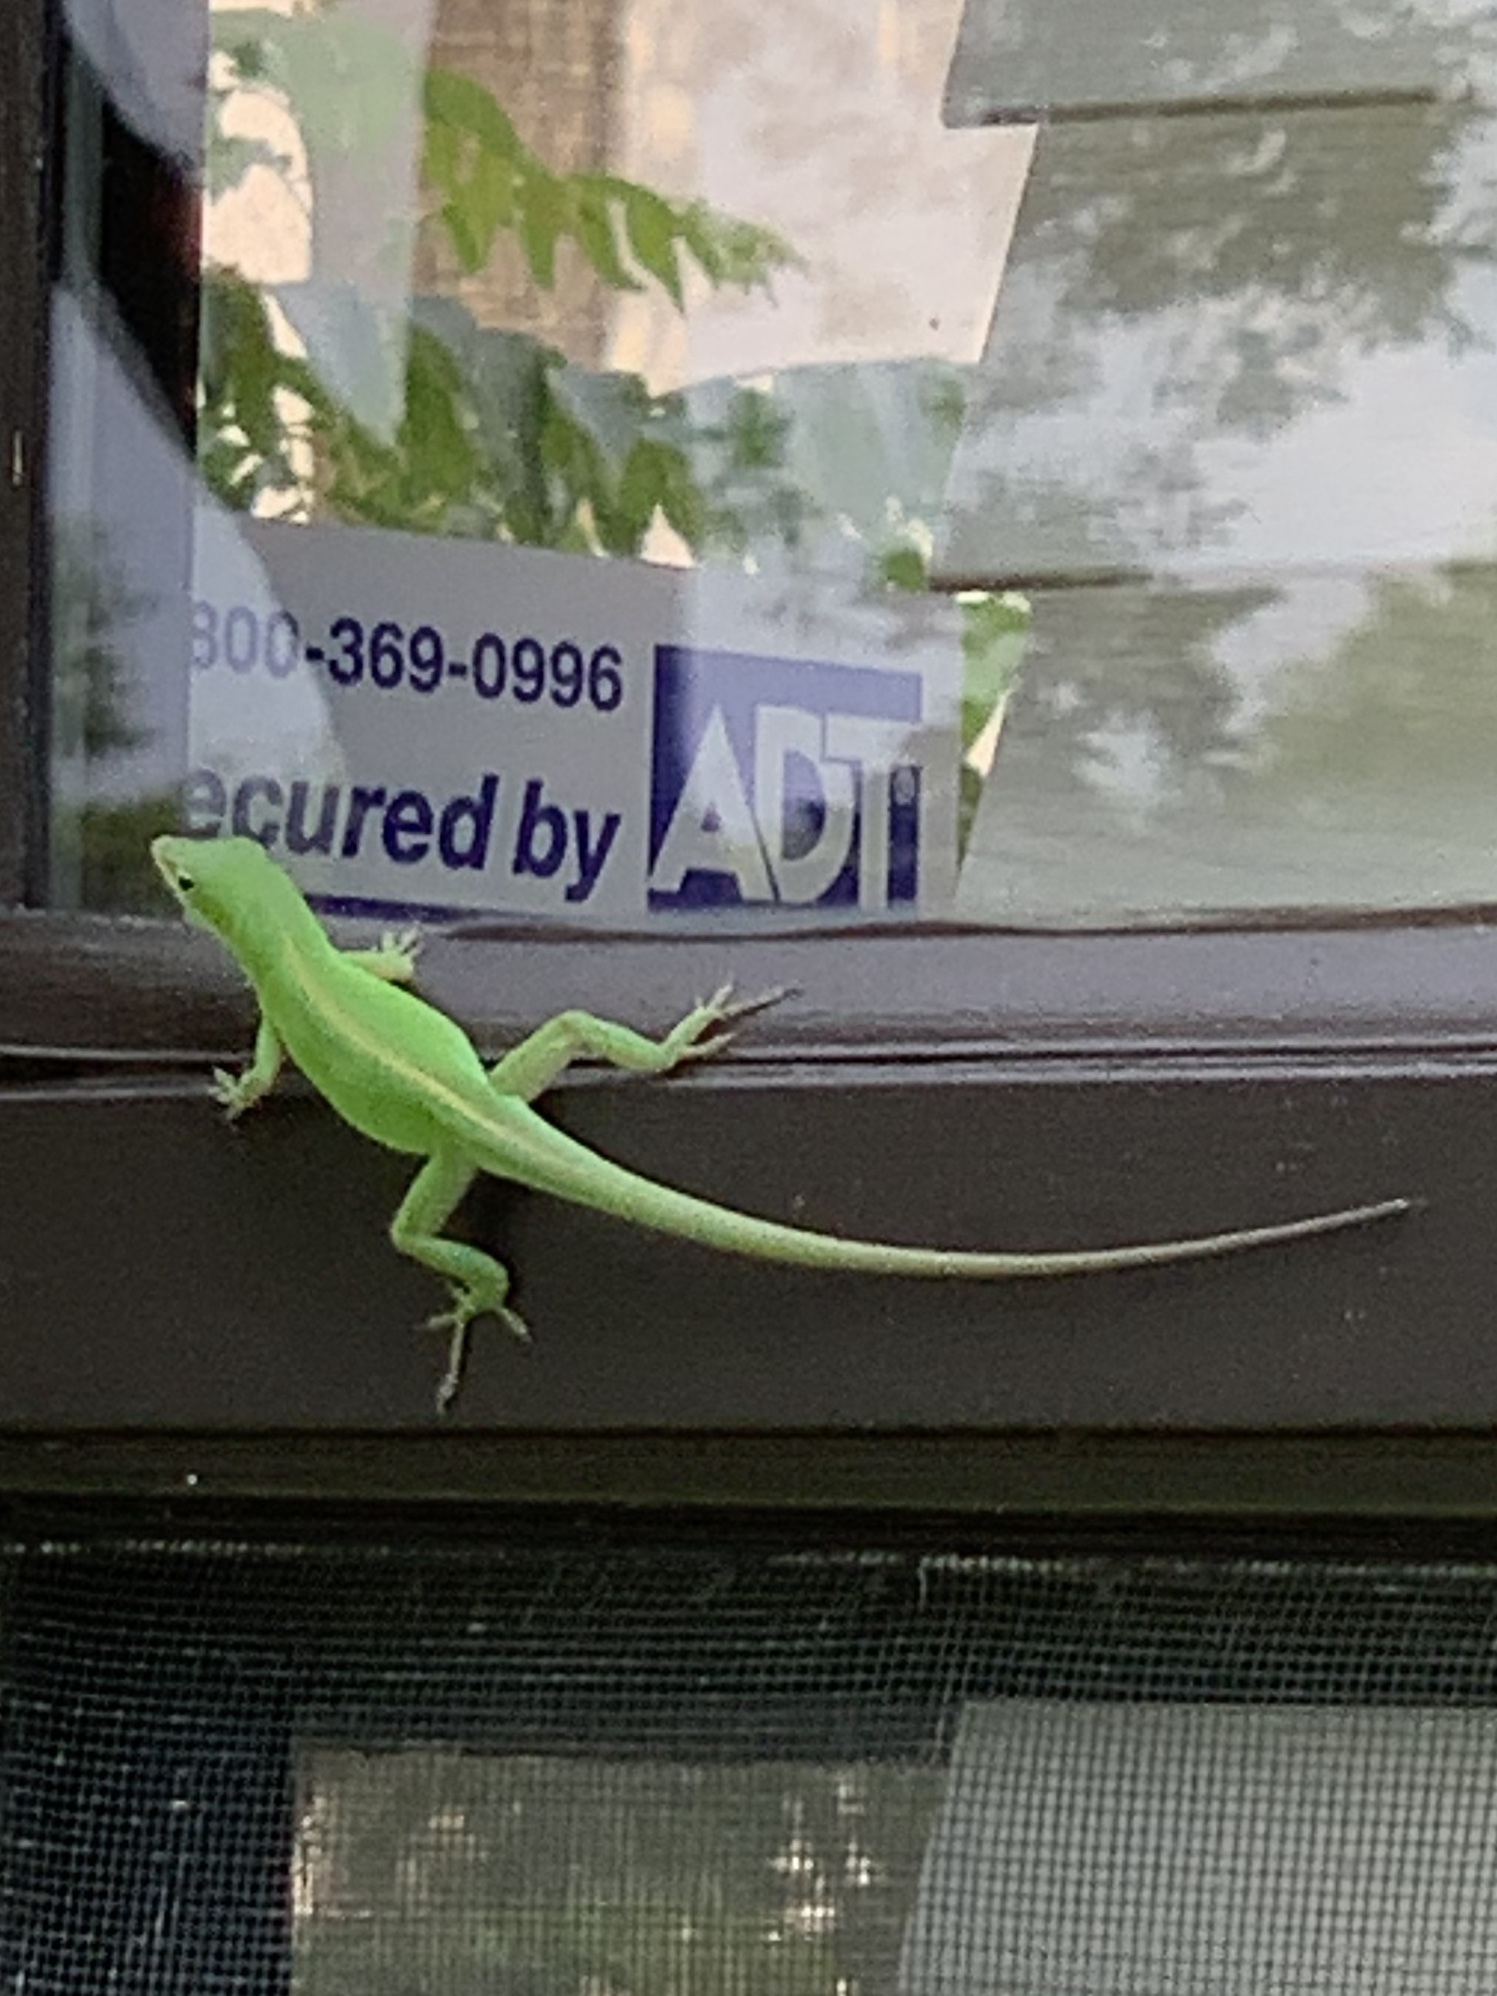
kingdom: Animalia
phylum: Chordata
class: Squamata
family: Dactyloidae
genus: Anolis
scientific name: Anolis carolinensis
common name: Green anole
